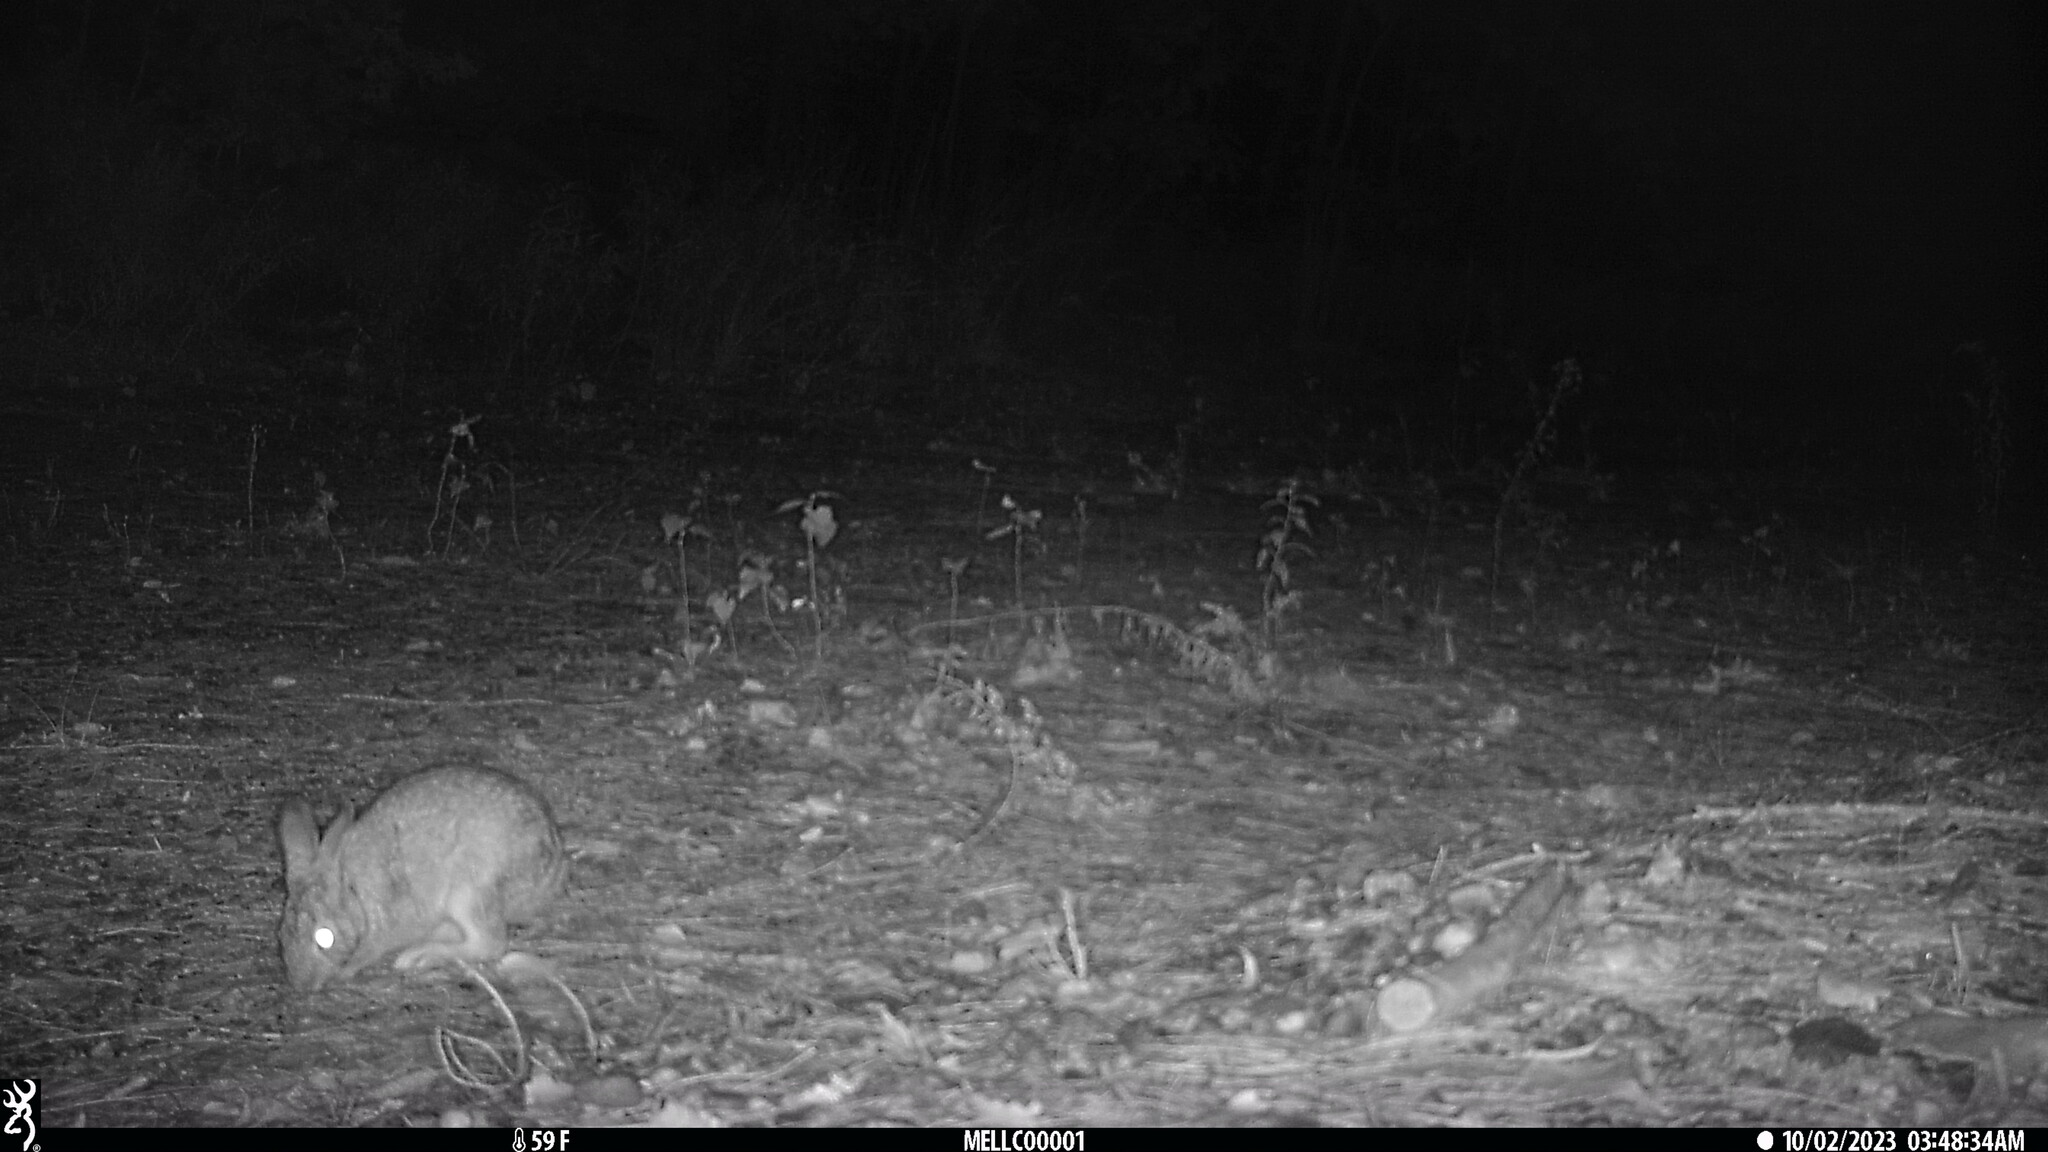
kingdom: Animalia
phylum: Chordata
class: Mammalia
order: Lagomorpha
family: Leporidae
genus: Sylvilagus
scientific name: Sylvilagus floridanus
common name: Eastern cottontail
